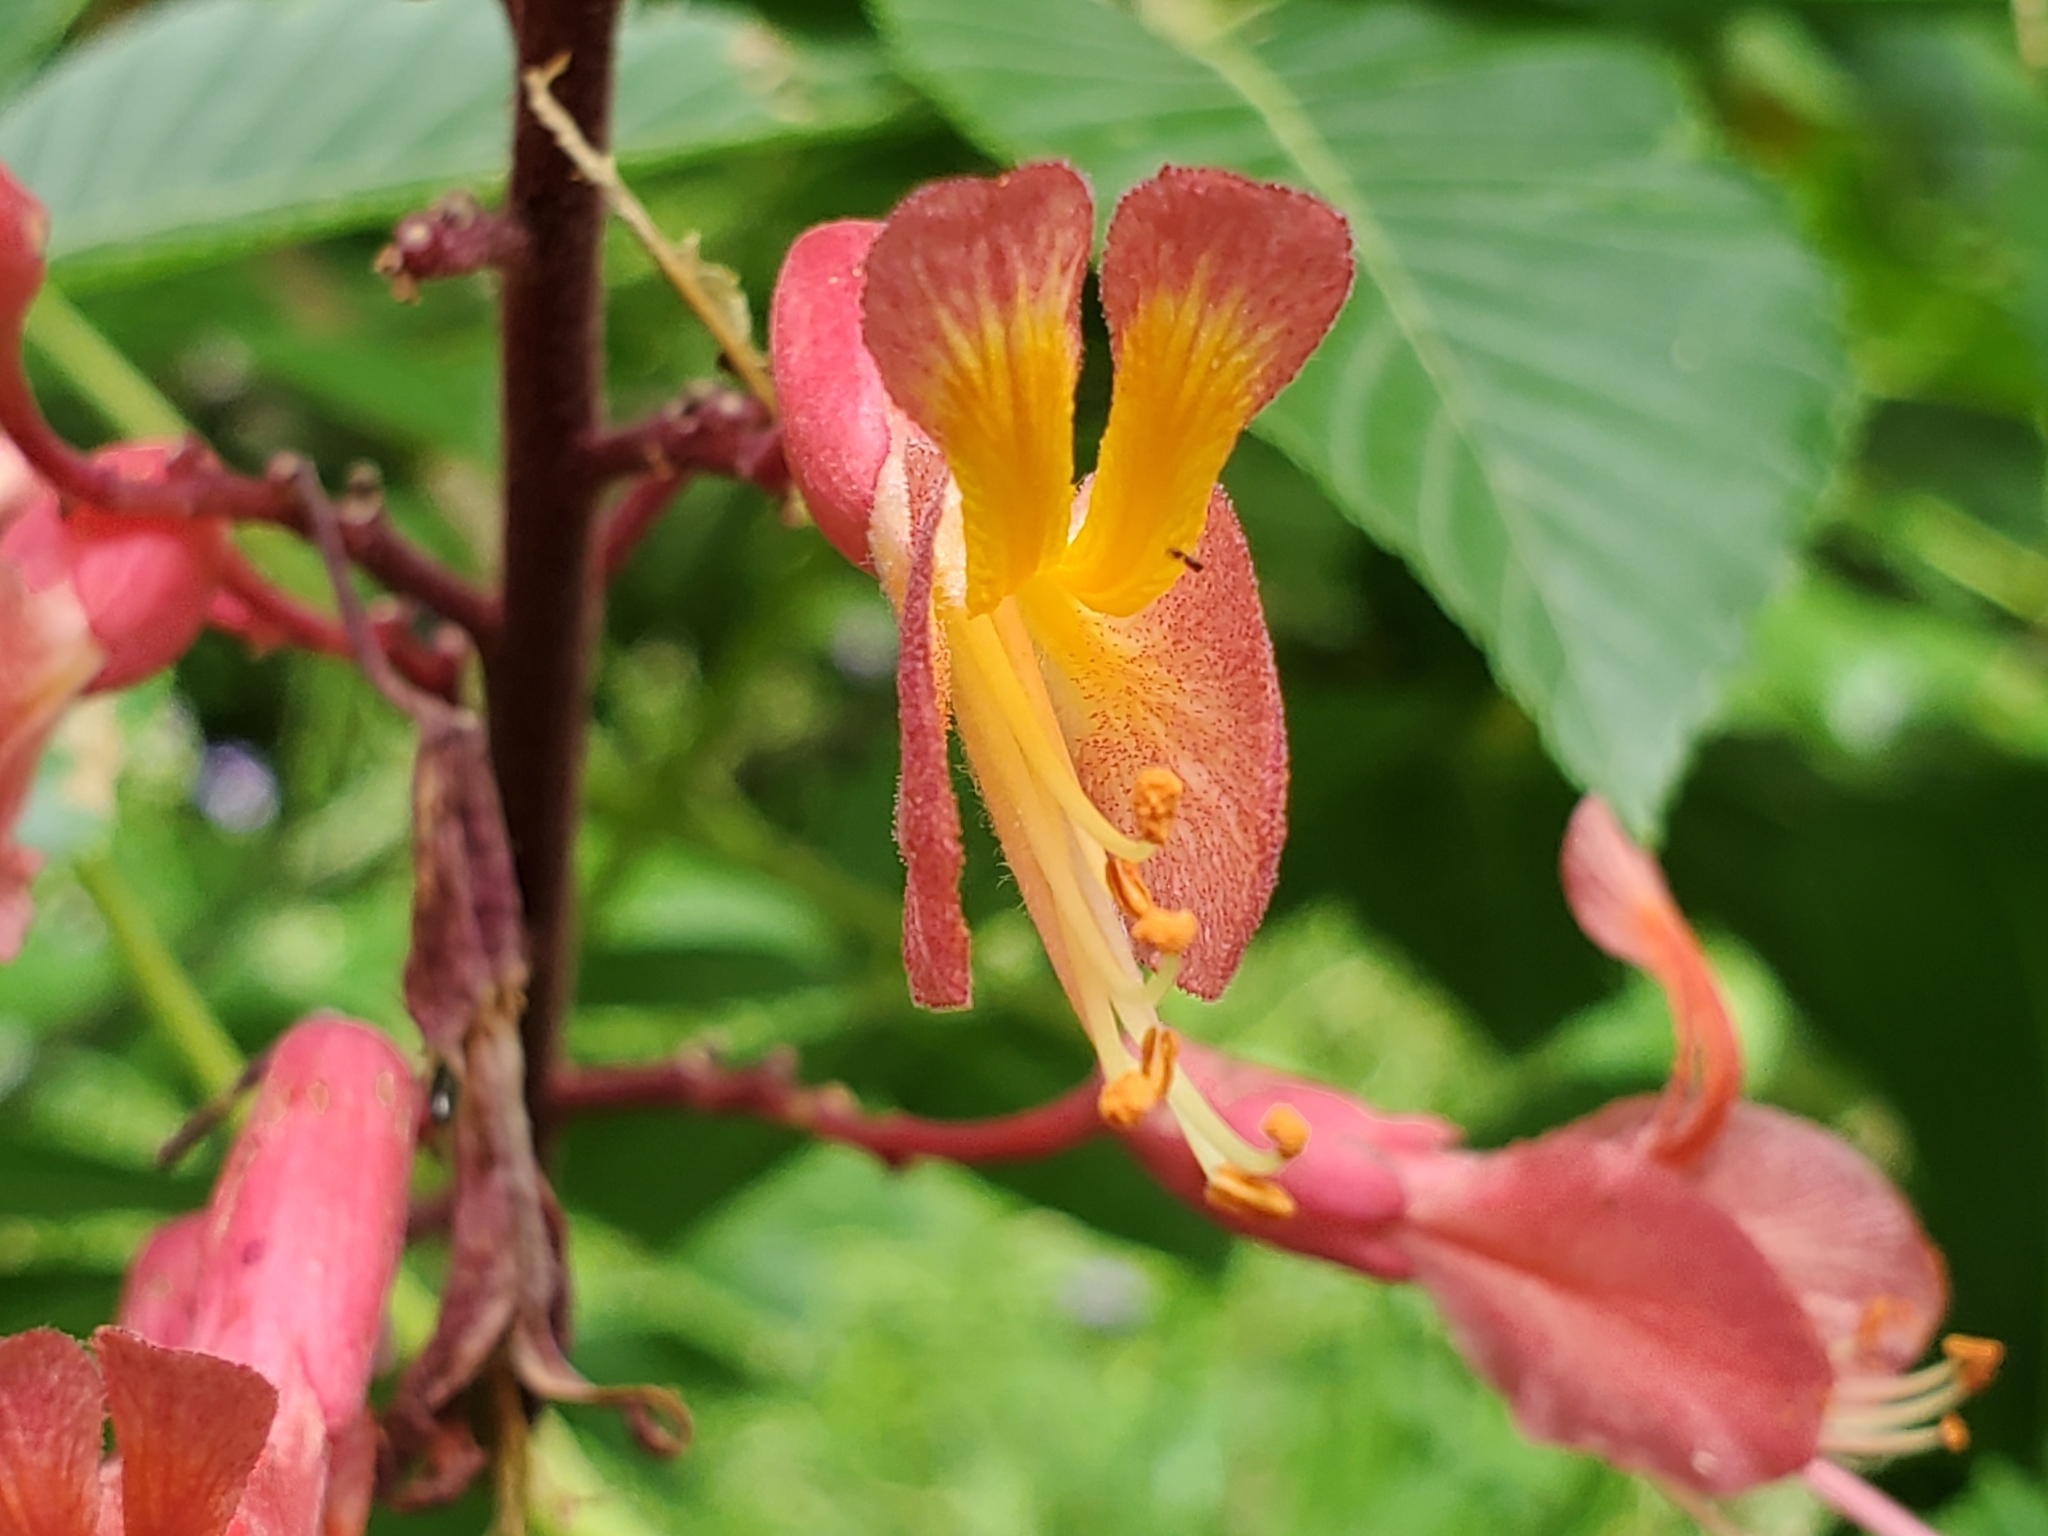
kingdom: Plantae
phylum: Tracheophyta
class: Magnoliopsida
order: Sapindales
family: Sapindaceae
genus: Aesculus
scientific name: Aesculus pavia
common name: Red buckeye
